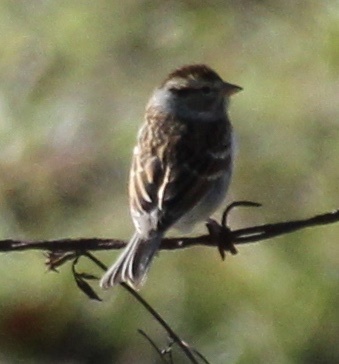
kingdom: Animalia
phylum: Chordata
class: Aves
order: Passeriformes
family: Passerellidae
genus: Spizella
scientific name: Spizella passerina
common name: Chipping sparrow
